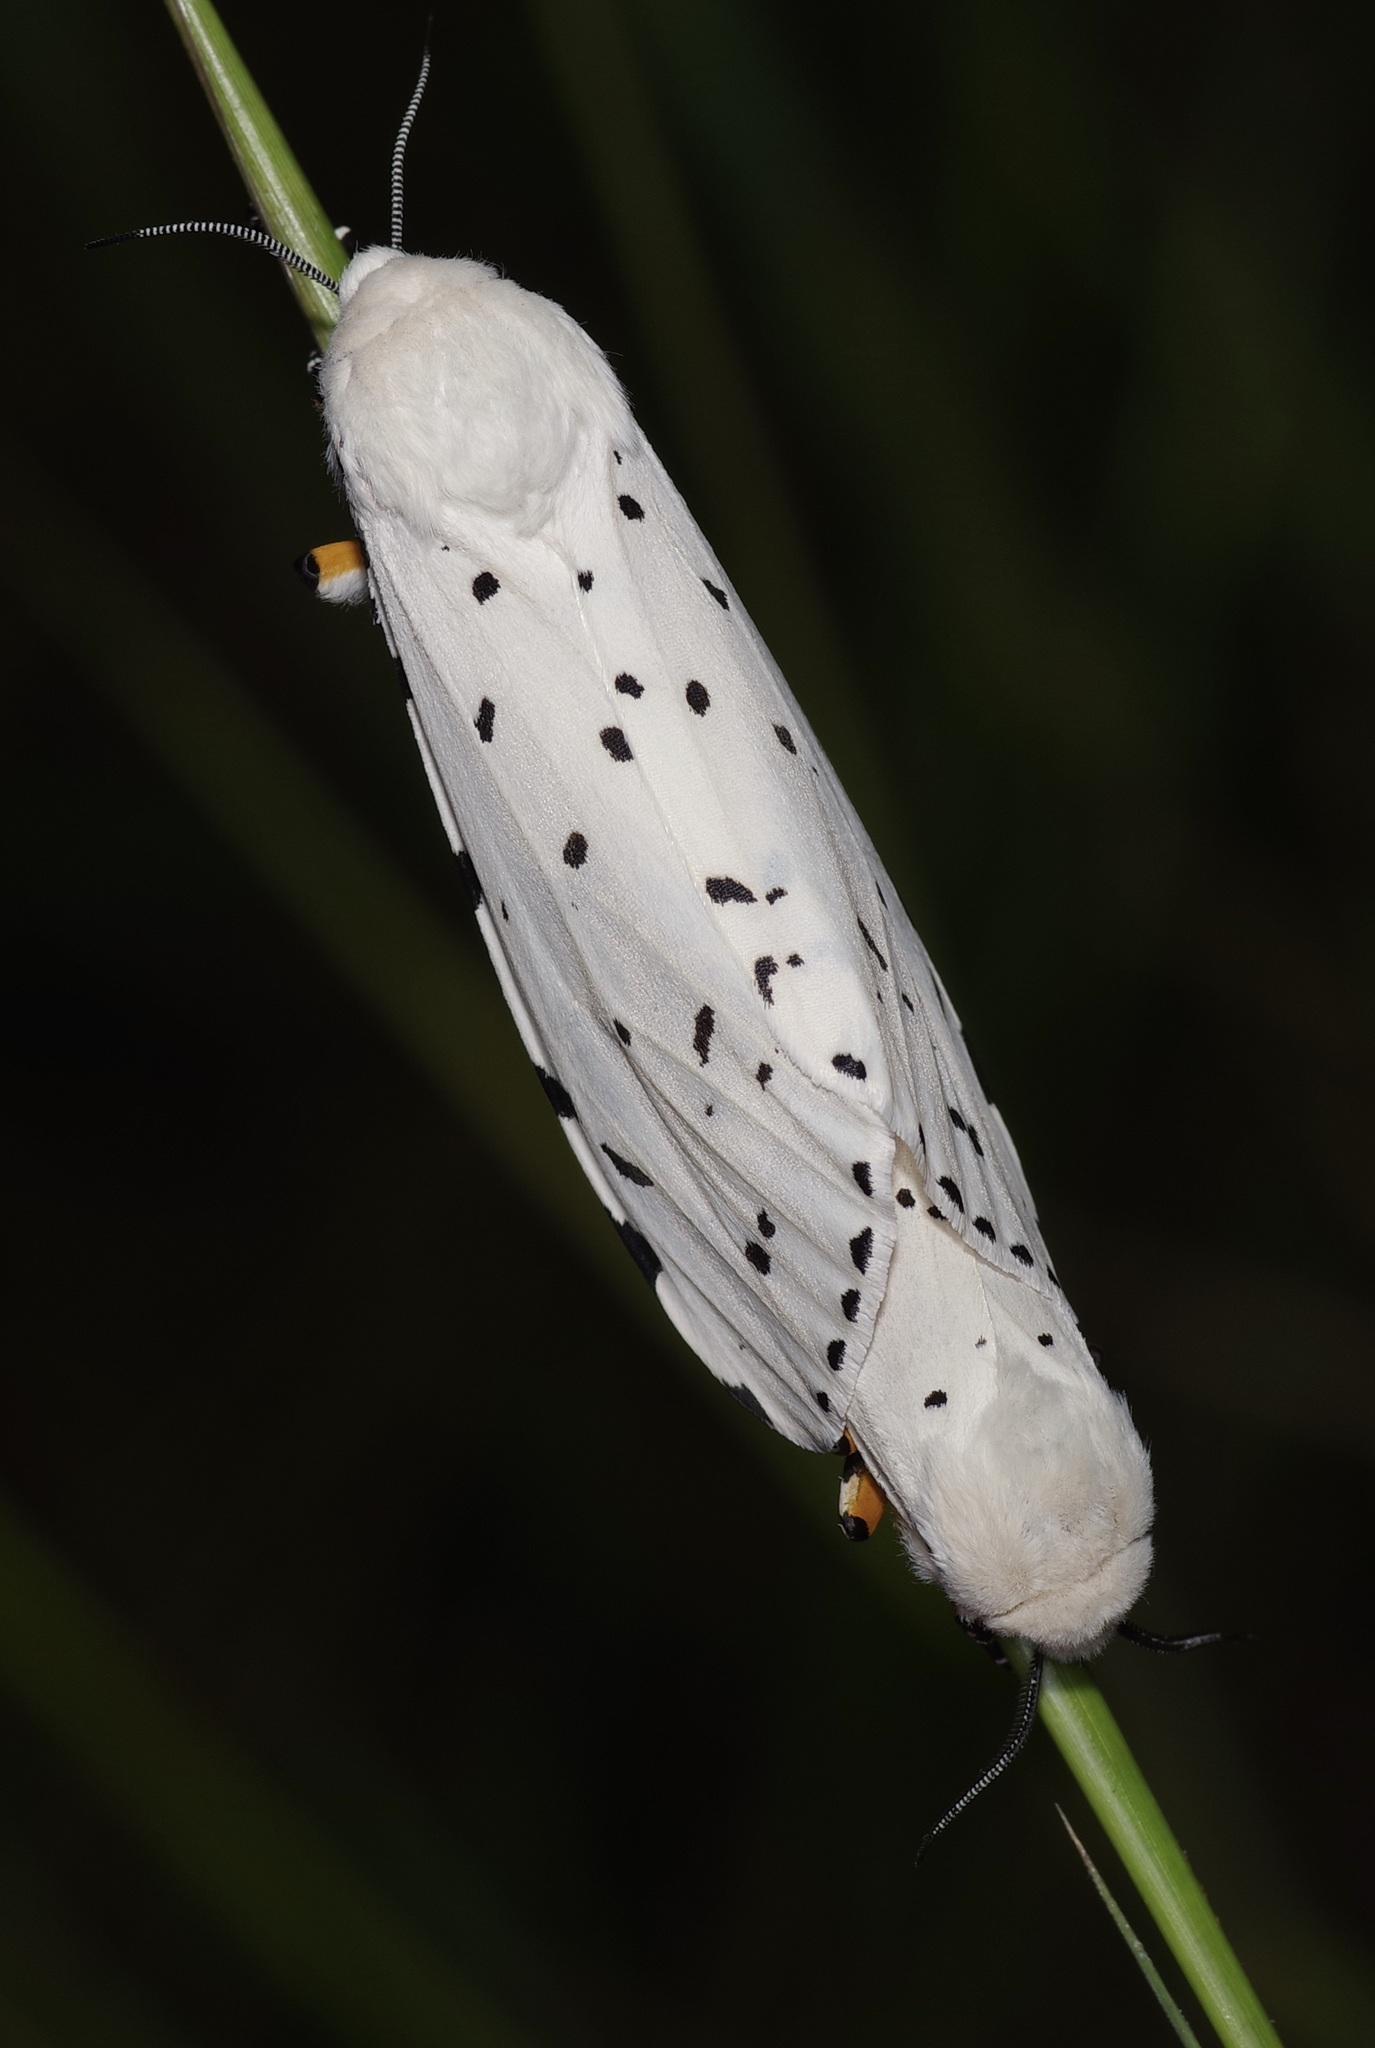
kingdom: Animalia
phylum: Arthropoda
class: Insecta
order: Lepidoptera
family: Erebidae
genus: Estigmene
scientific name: Estigmene acrea
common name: Salt marsh moth
